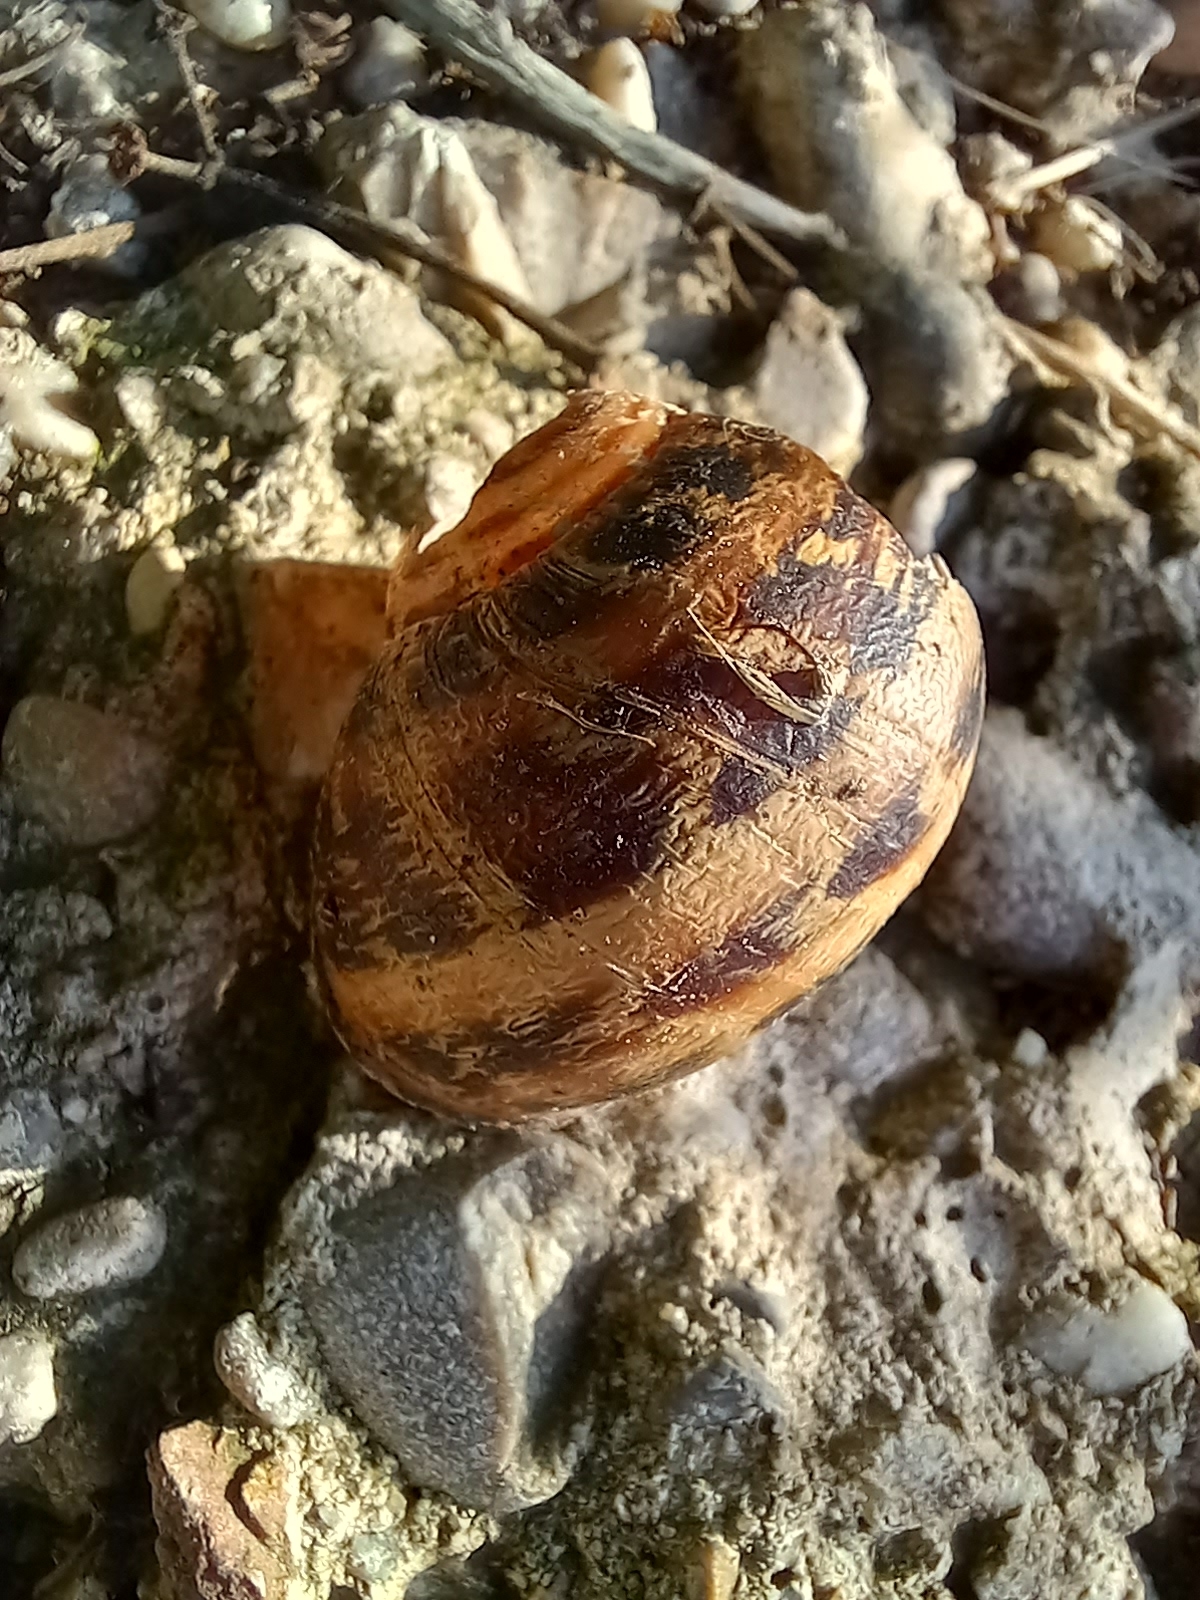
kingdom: Animalia
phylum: Mollusca
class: Gastropoda
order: Stylommatophora
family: Helicidae
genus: Cornu
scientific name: Cornu aspersum
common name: Brown garden snail
